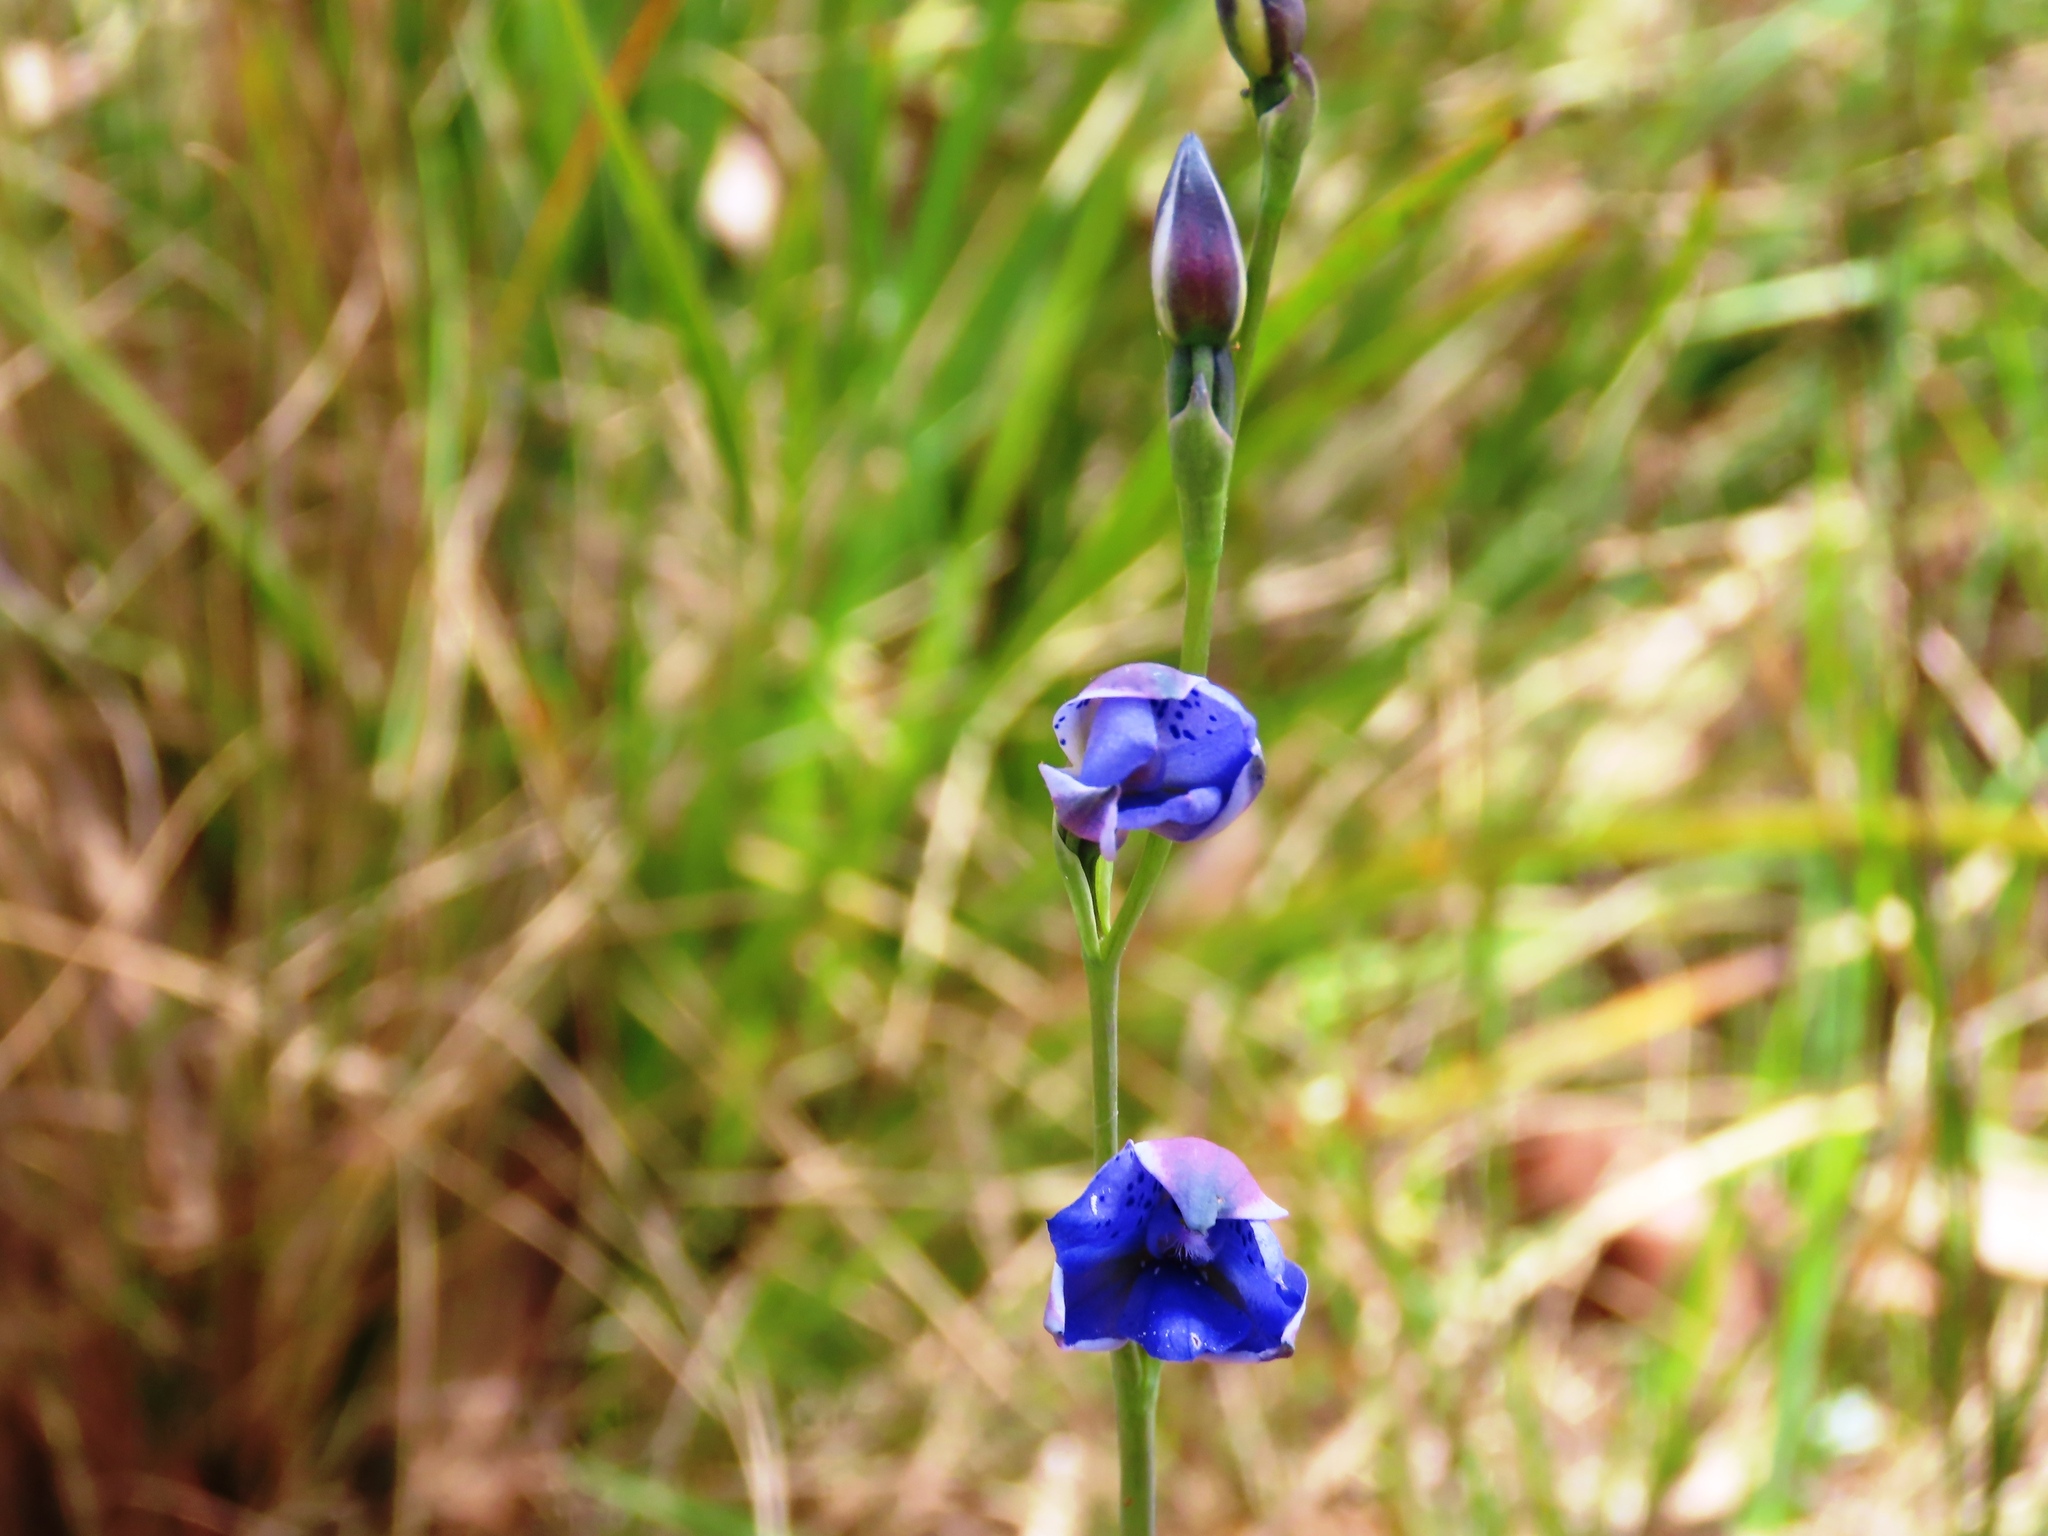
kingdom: Plantae
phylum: Tracheophyta
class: Liliopsida
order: Asparagales
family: Orchidaceae
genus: Thelymitra
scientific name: Thelymitra ixioides
